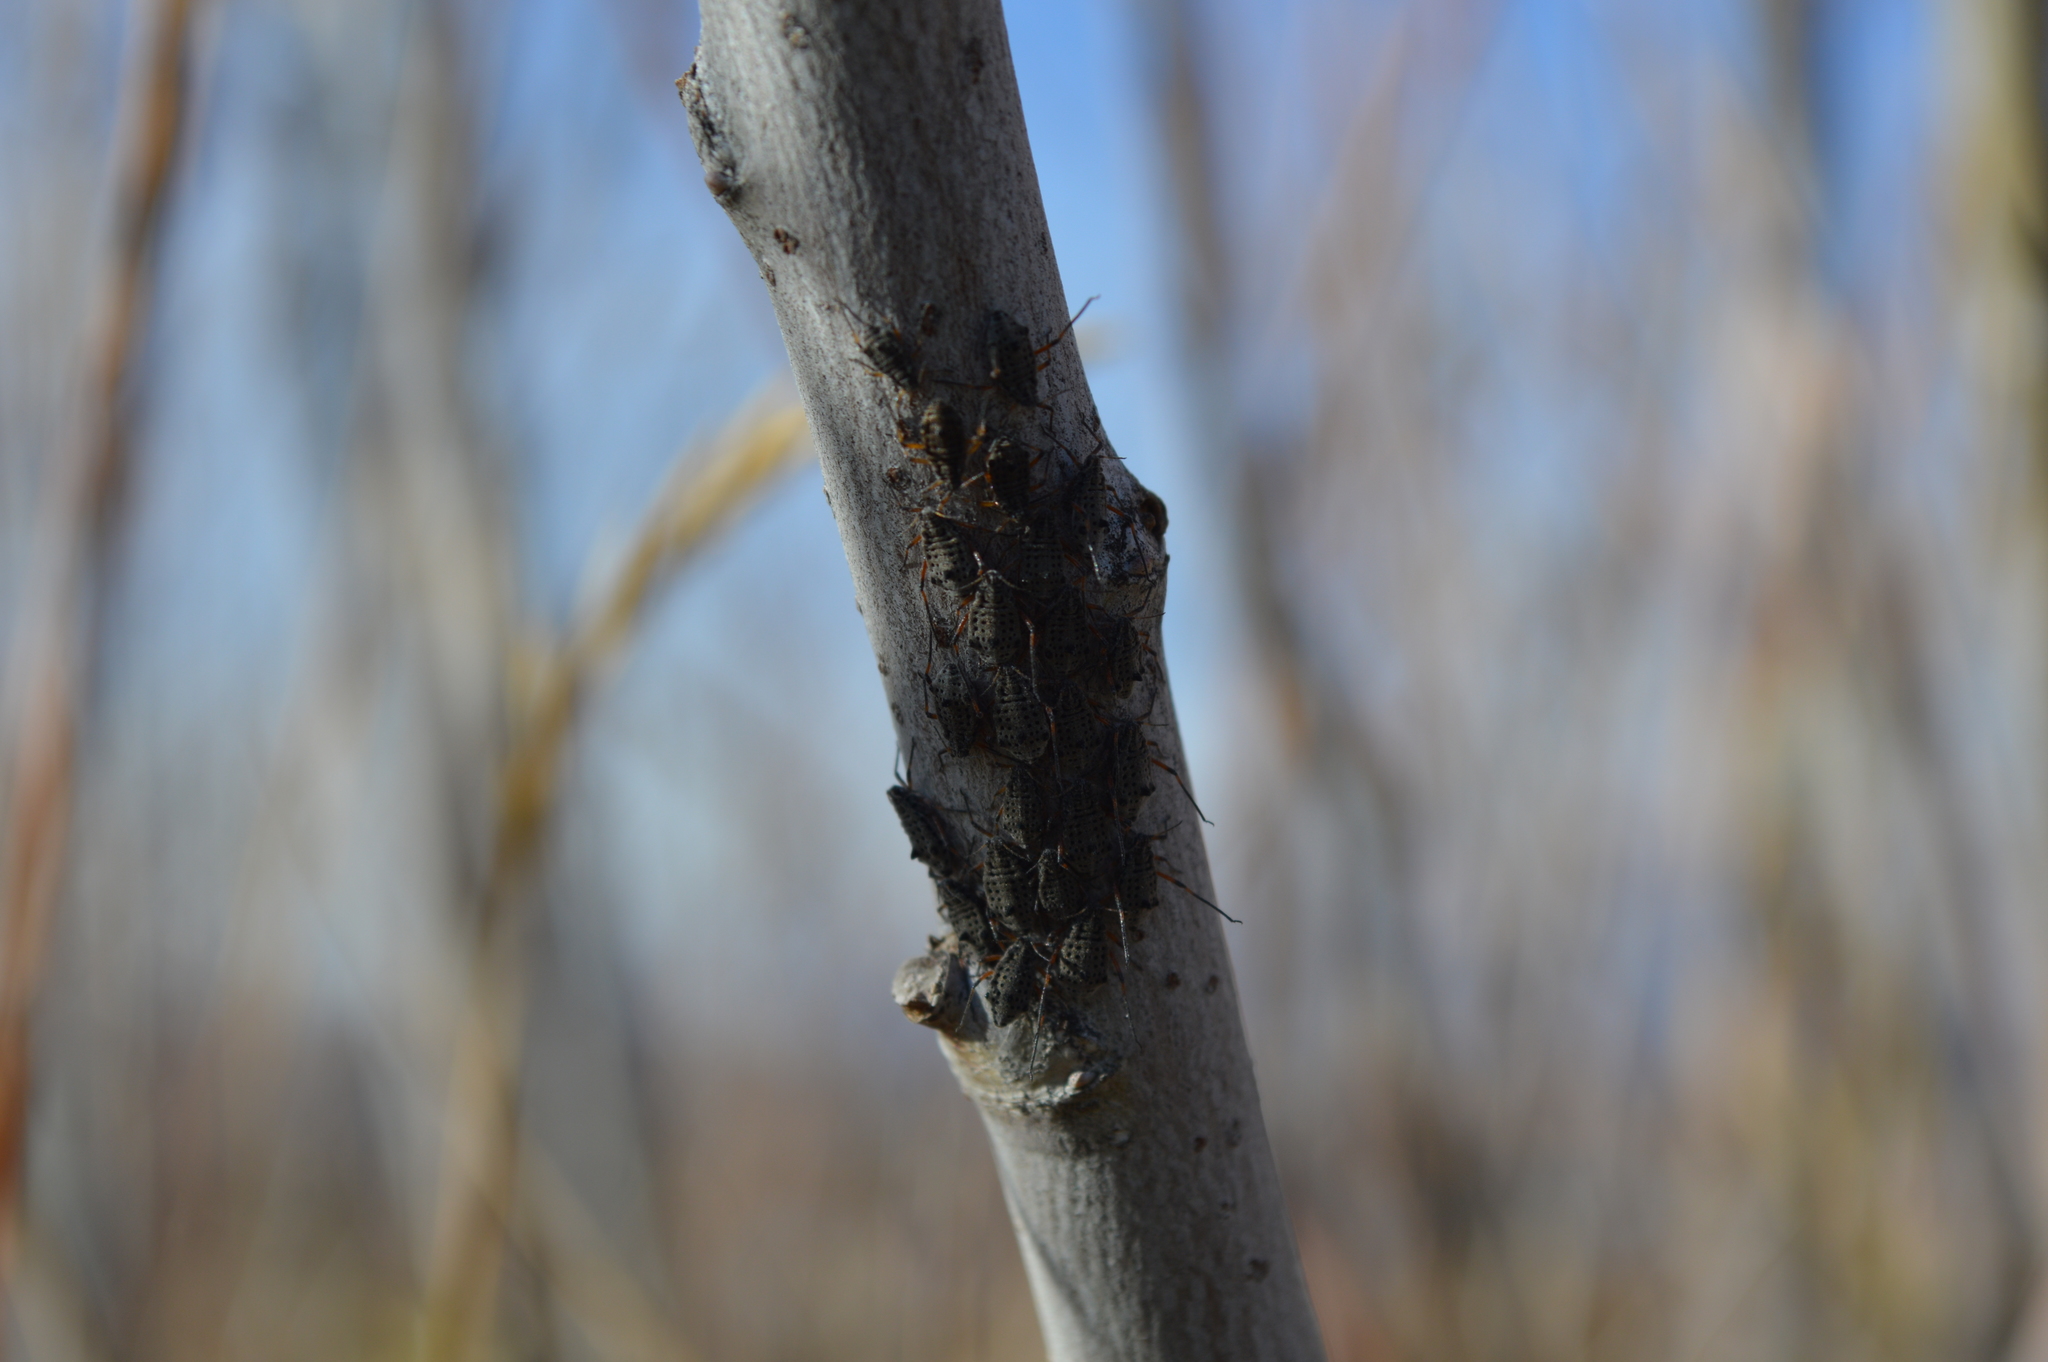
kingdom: Animalia
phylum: Arthropoda
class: Insecta
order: Hemiptera
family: Aphididae
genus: Tuberolachnus
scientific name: Tuberolachnus salignus
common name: Giant willow aphid
